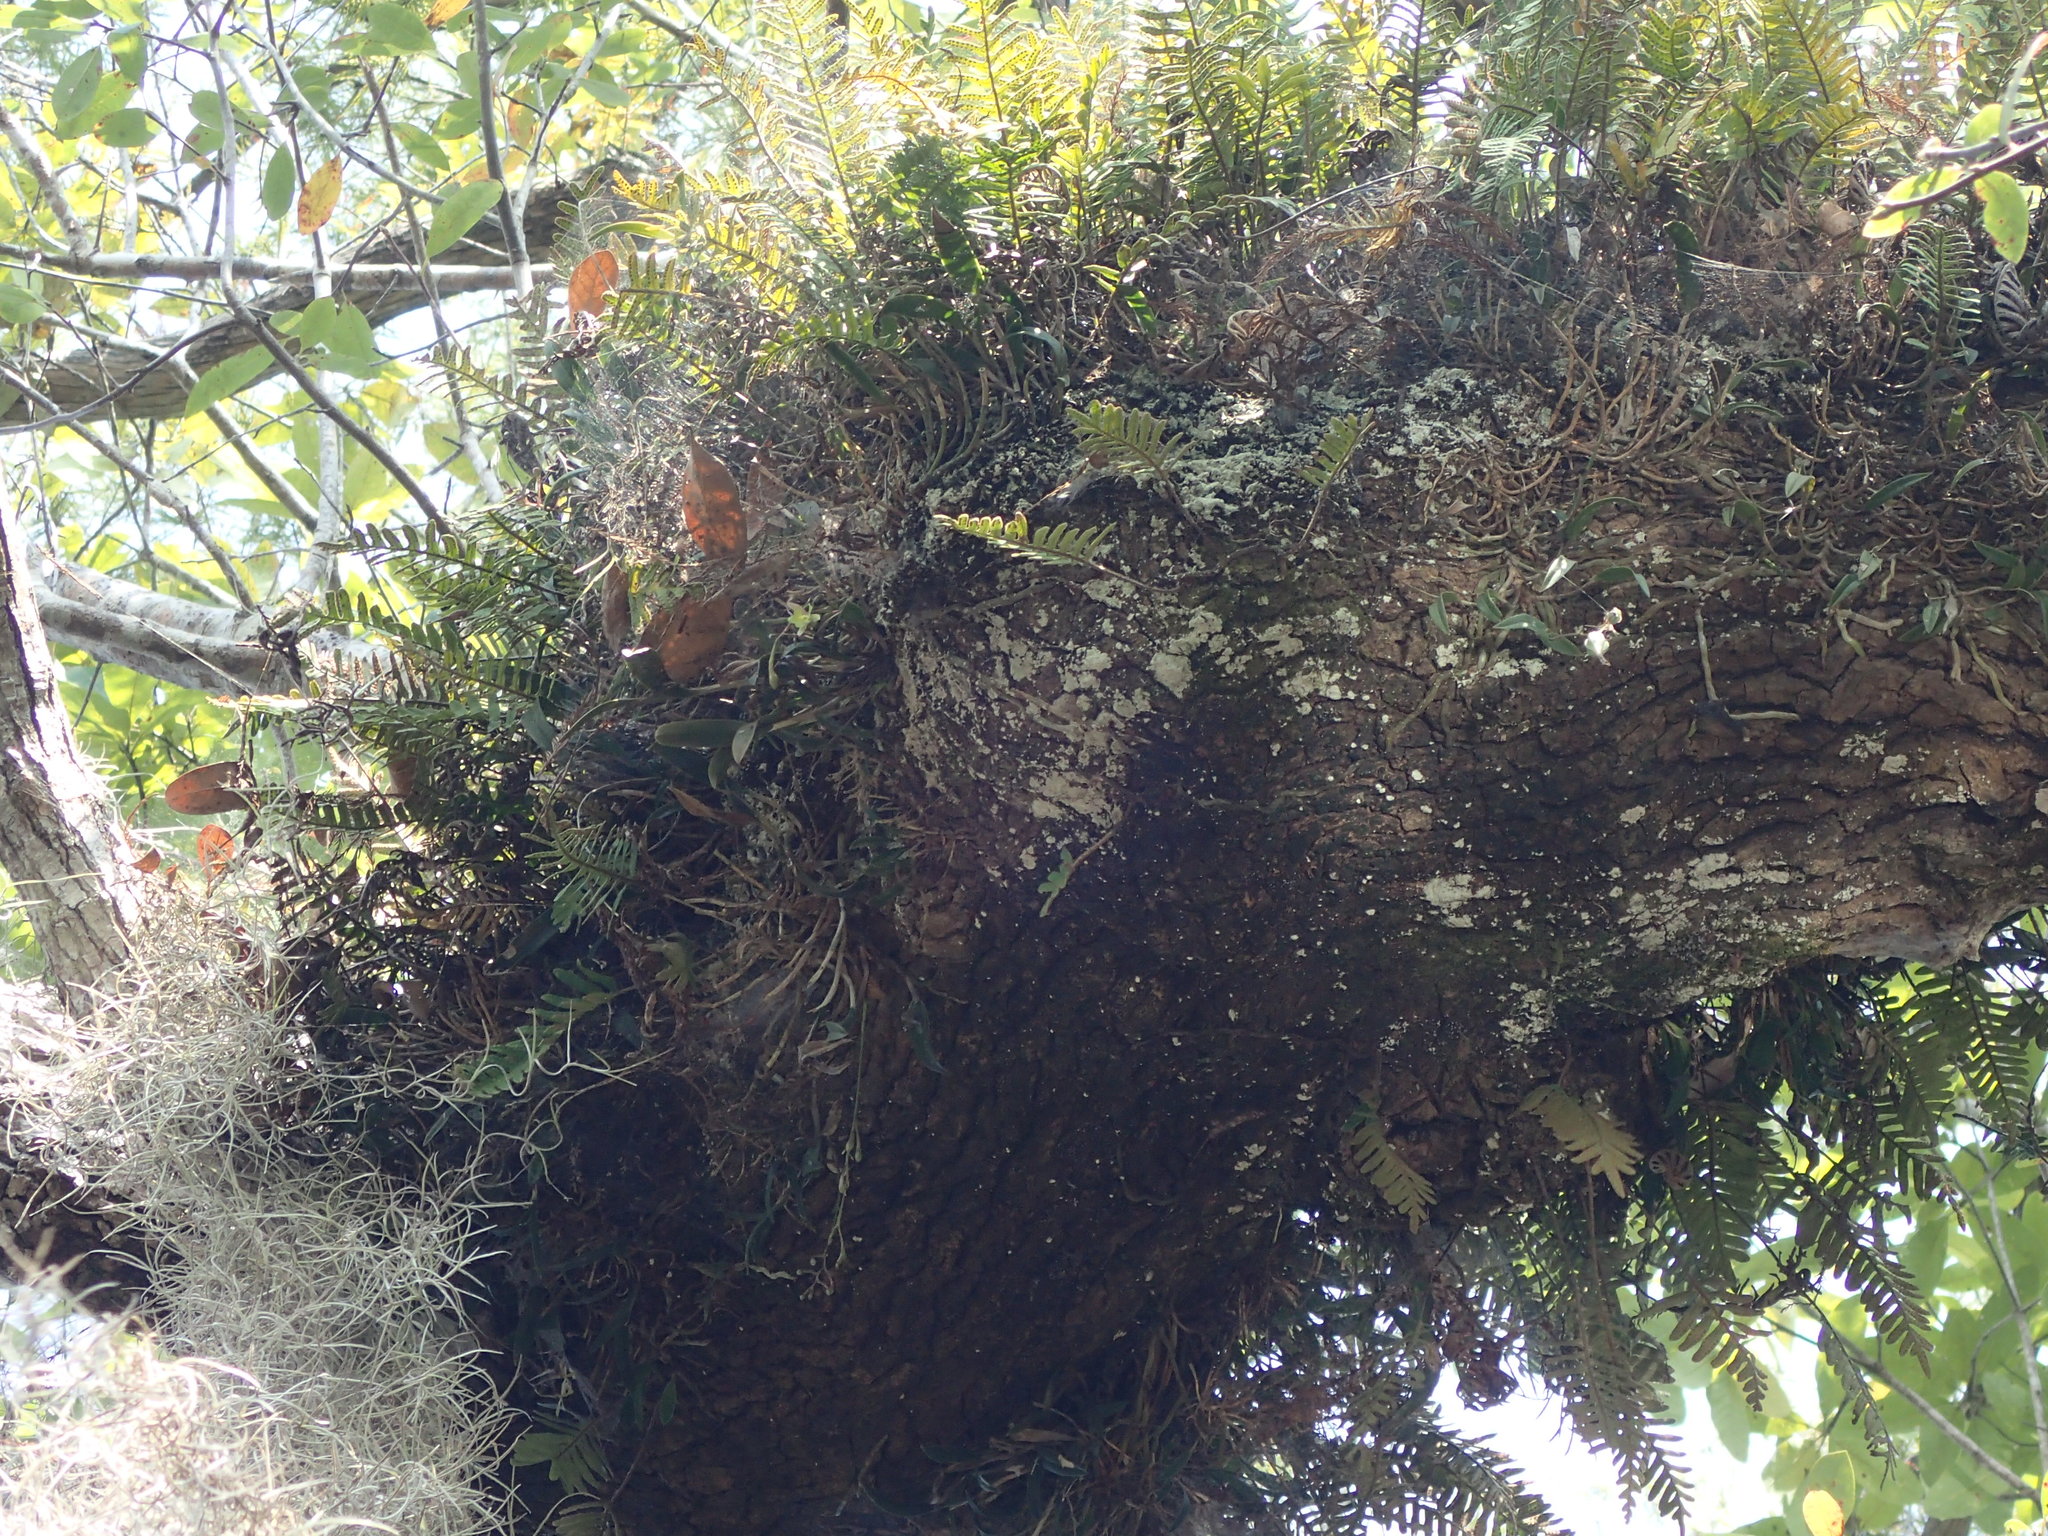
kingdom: Plantae
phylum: Tracheophyta
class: Liliopsida
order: Asparagales
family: Orchidaceae
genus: Epidendrum
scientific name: Epidendrum conopseum
